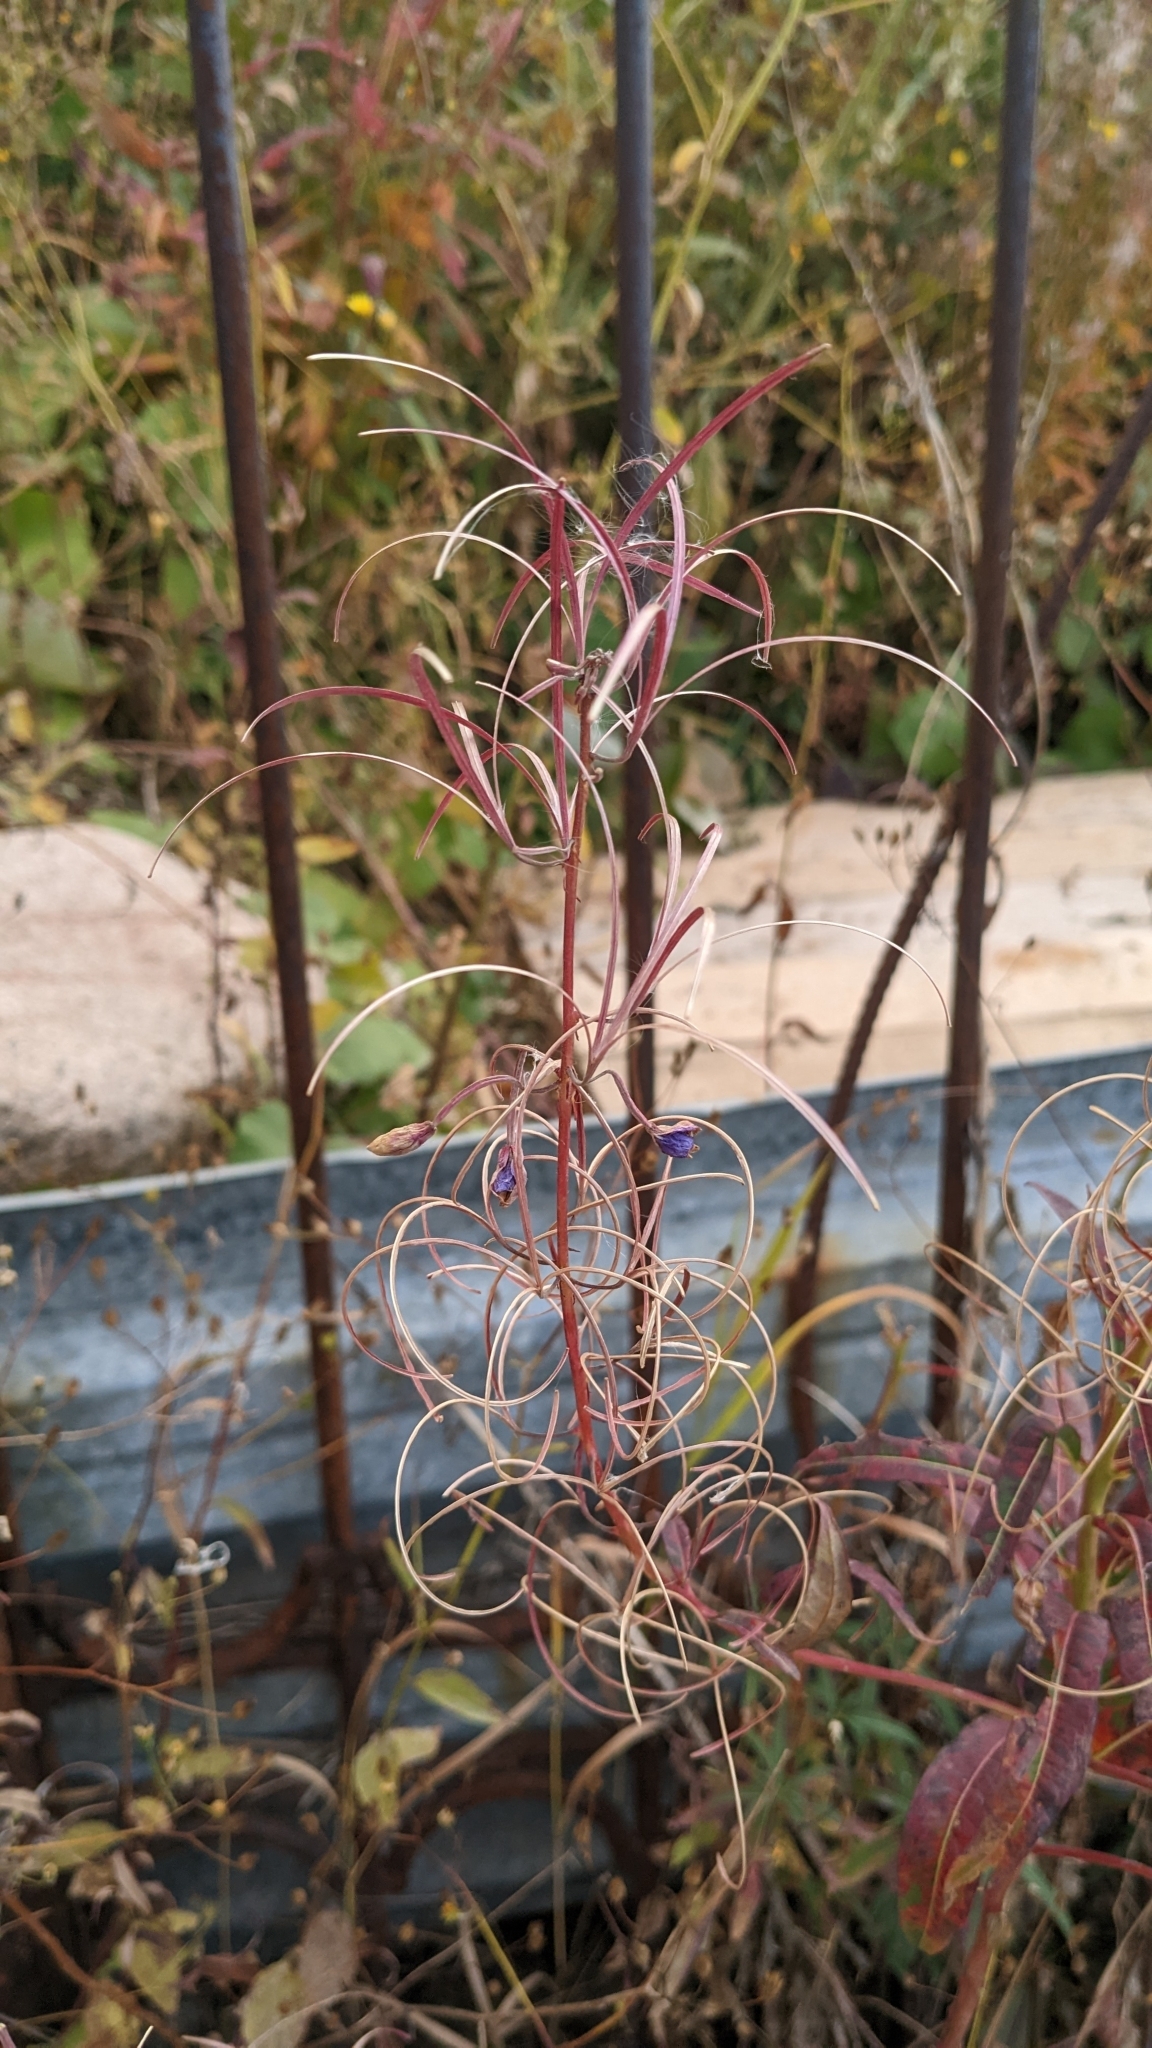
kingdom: Plantae
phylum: Tracheophyta
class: Magnoliopsida
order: Myrtales
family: Onagraceae
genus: Chamaenerion
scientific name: Chamaenerion angustifolium
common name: Fireweed
